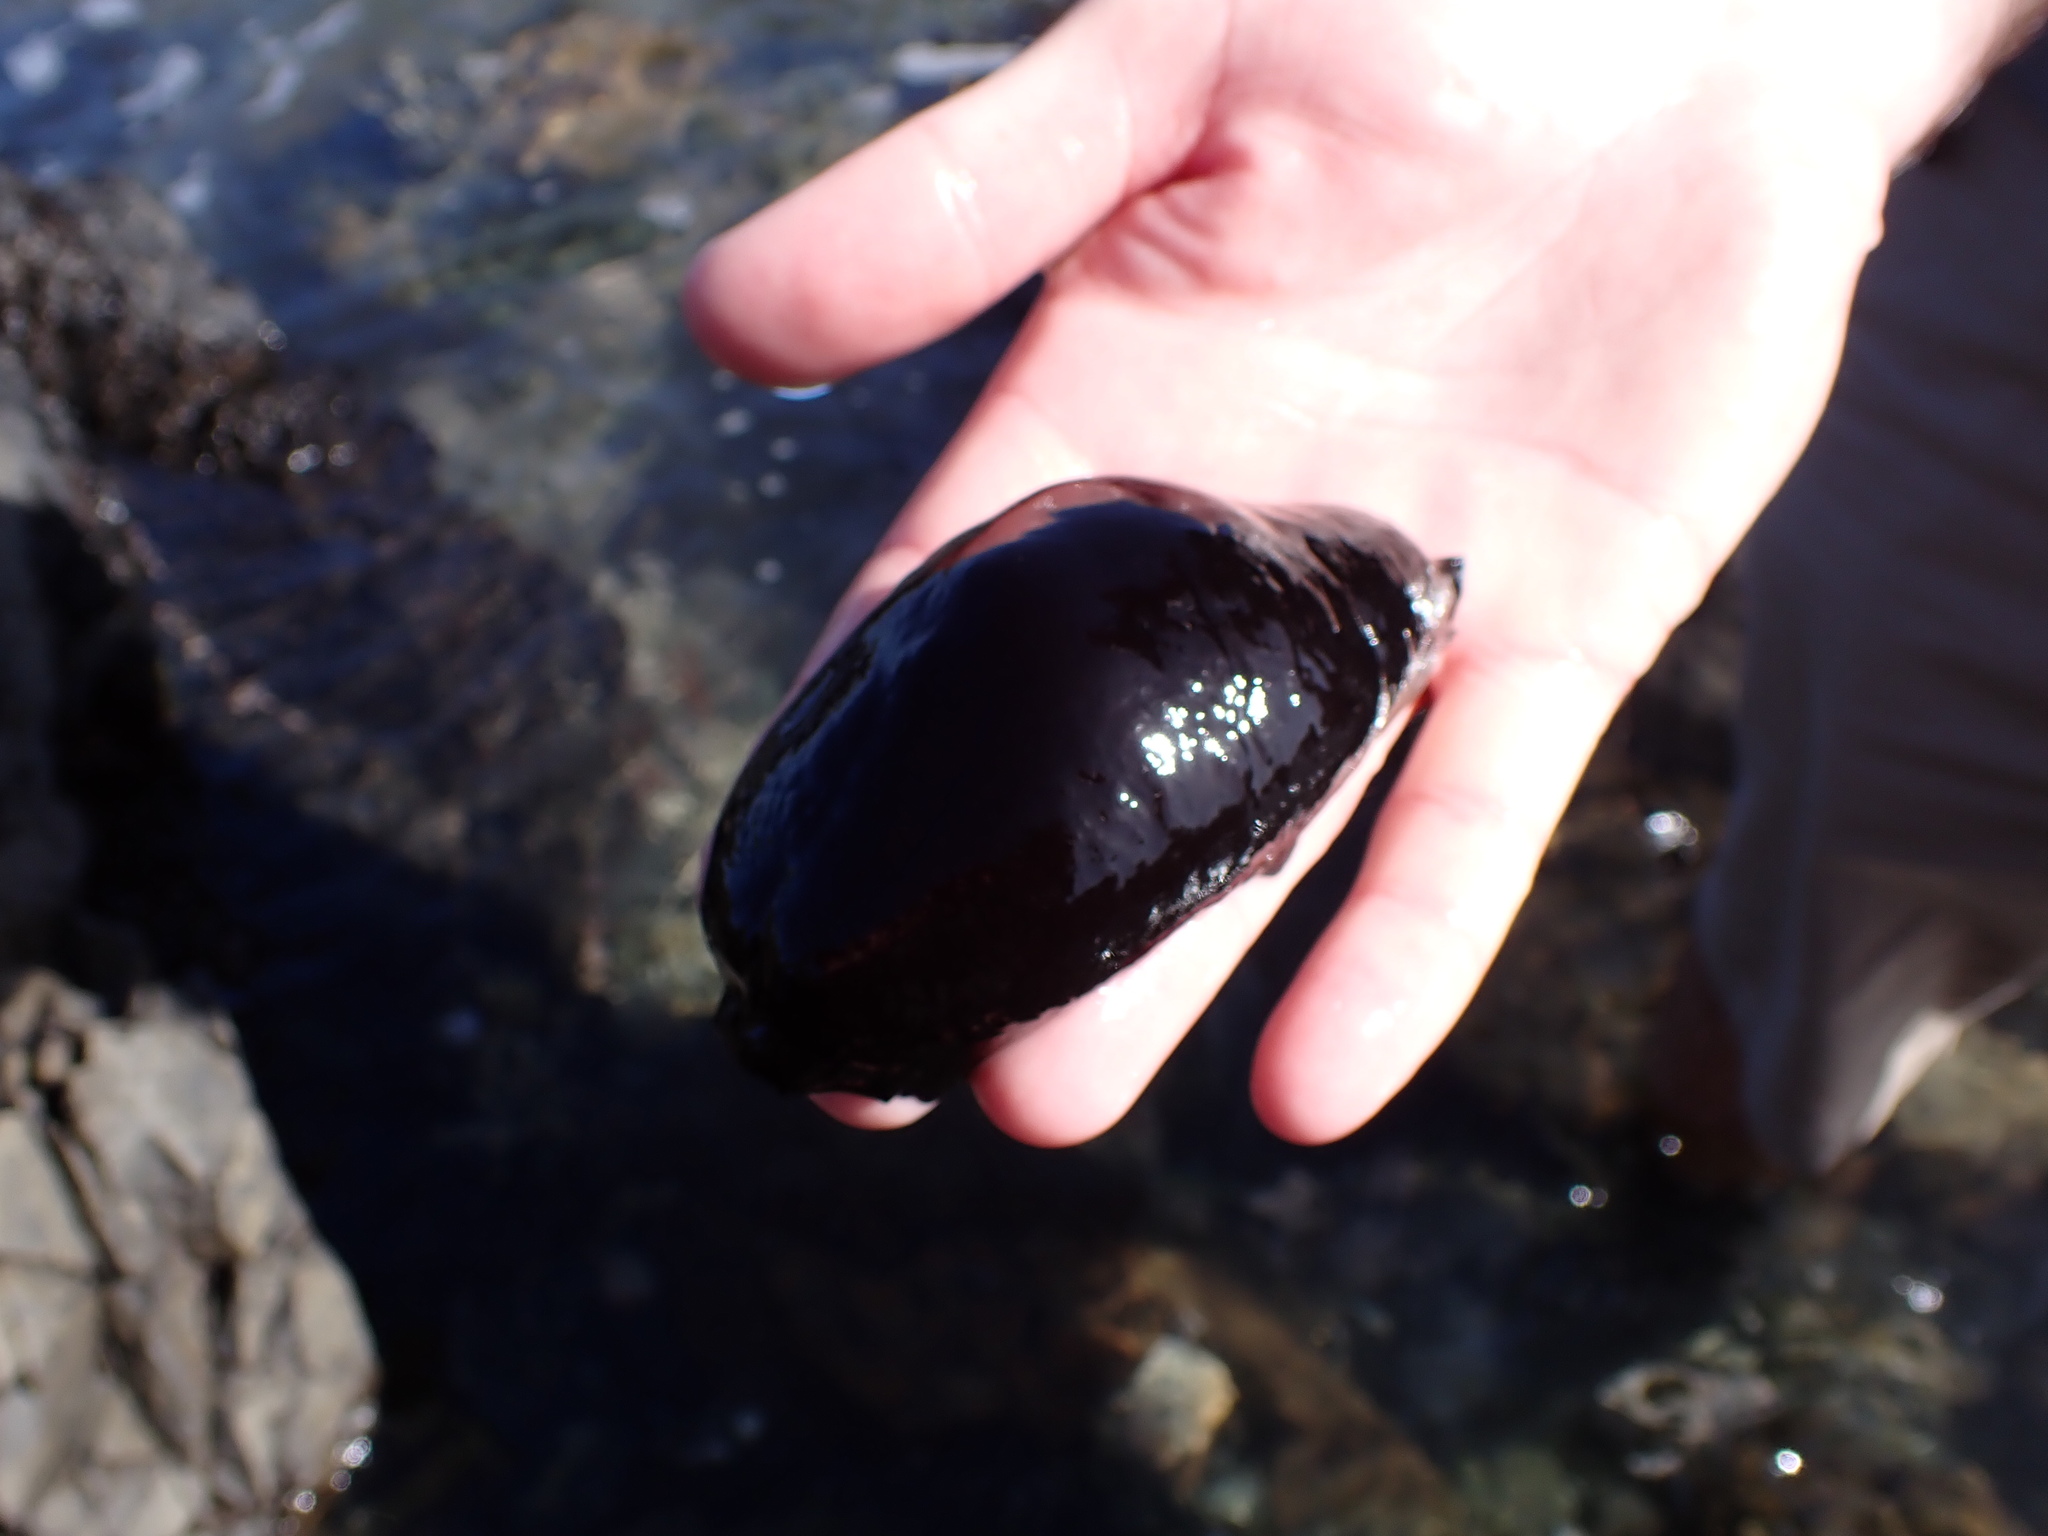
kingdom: Animalia
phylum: Mollusca
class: Gastropoda
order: Lepetellida
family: Fissurellidae
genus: Scutus
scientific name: Scutus breviculus
